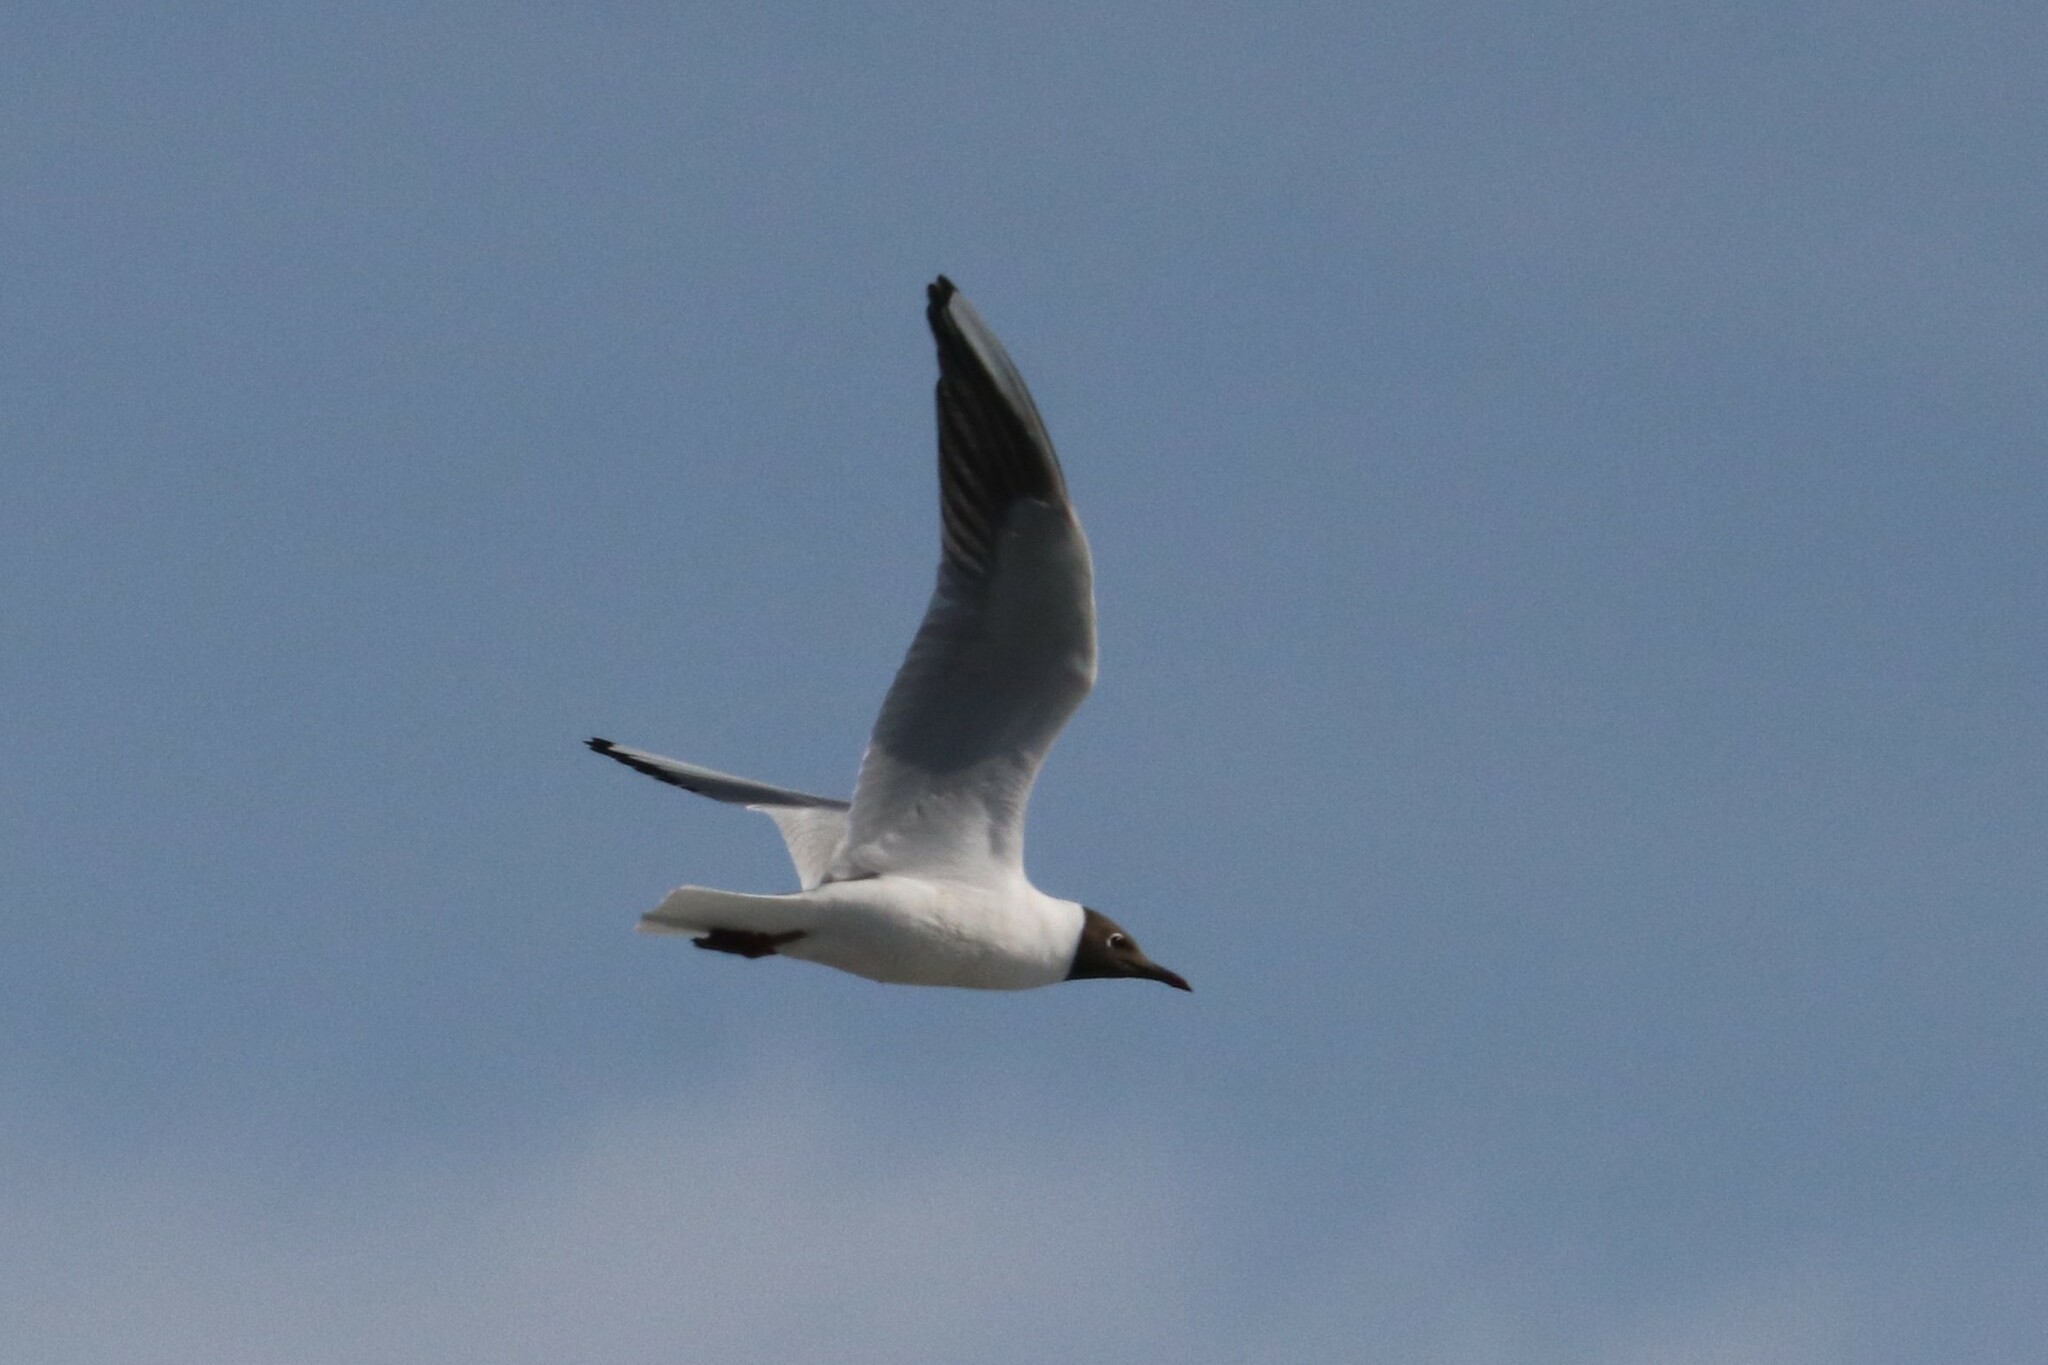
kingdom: Animalia
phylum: Chordata
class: Aves
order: Charadriiformes
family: Laridae
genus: Chroicocephalus
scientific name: Chroicocephalus ridibundus
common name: Black-headed gull
